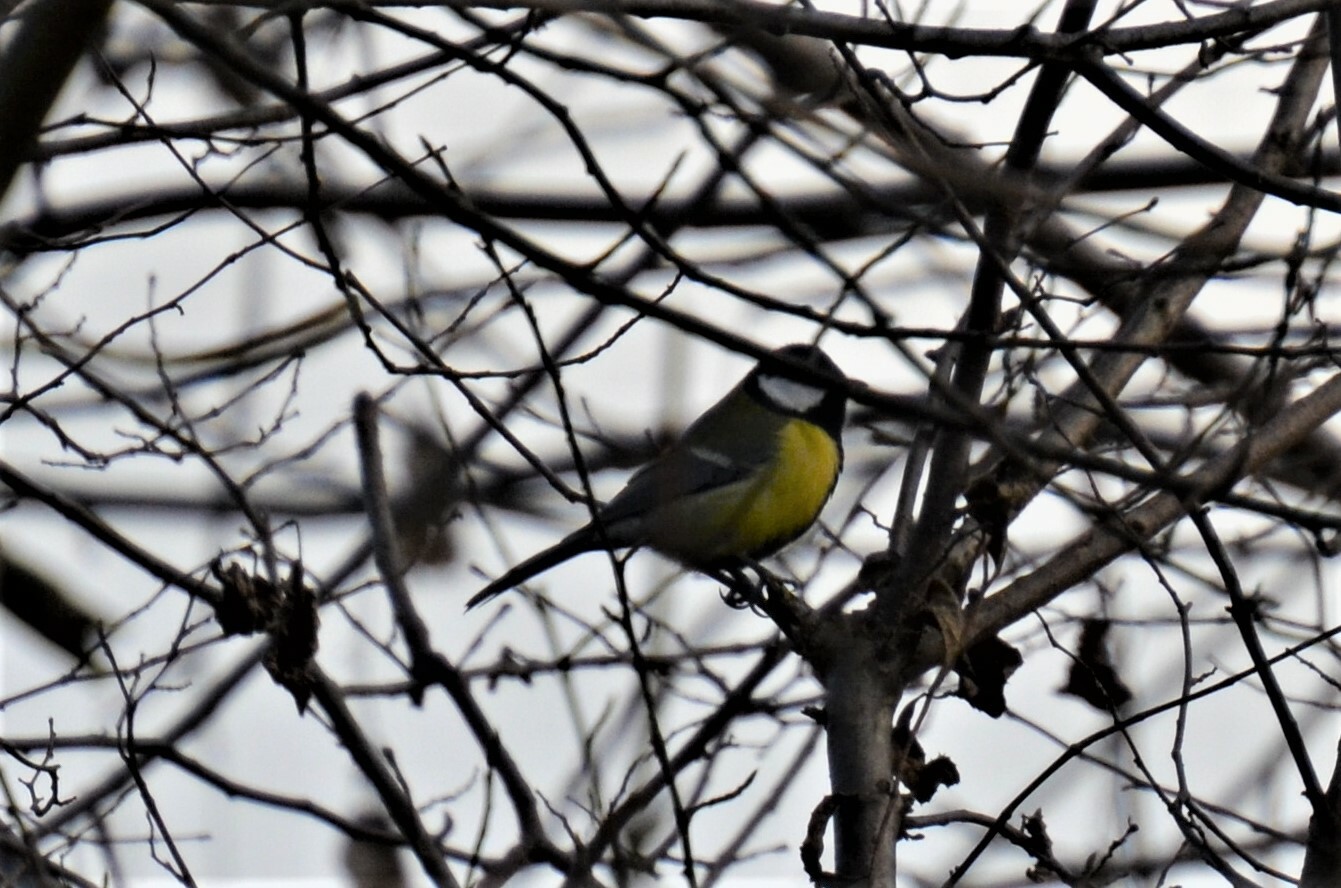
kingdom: Animalia
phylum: Chordata
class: Aves
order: Passeriformes
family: Paridae
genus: Parus
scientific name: Parus major
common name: Great tit
